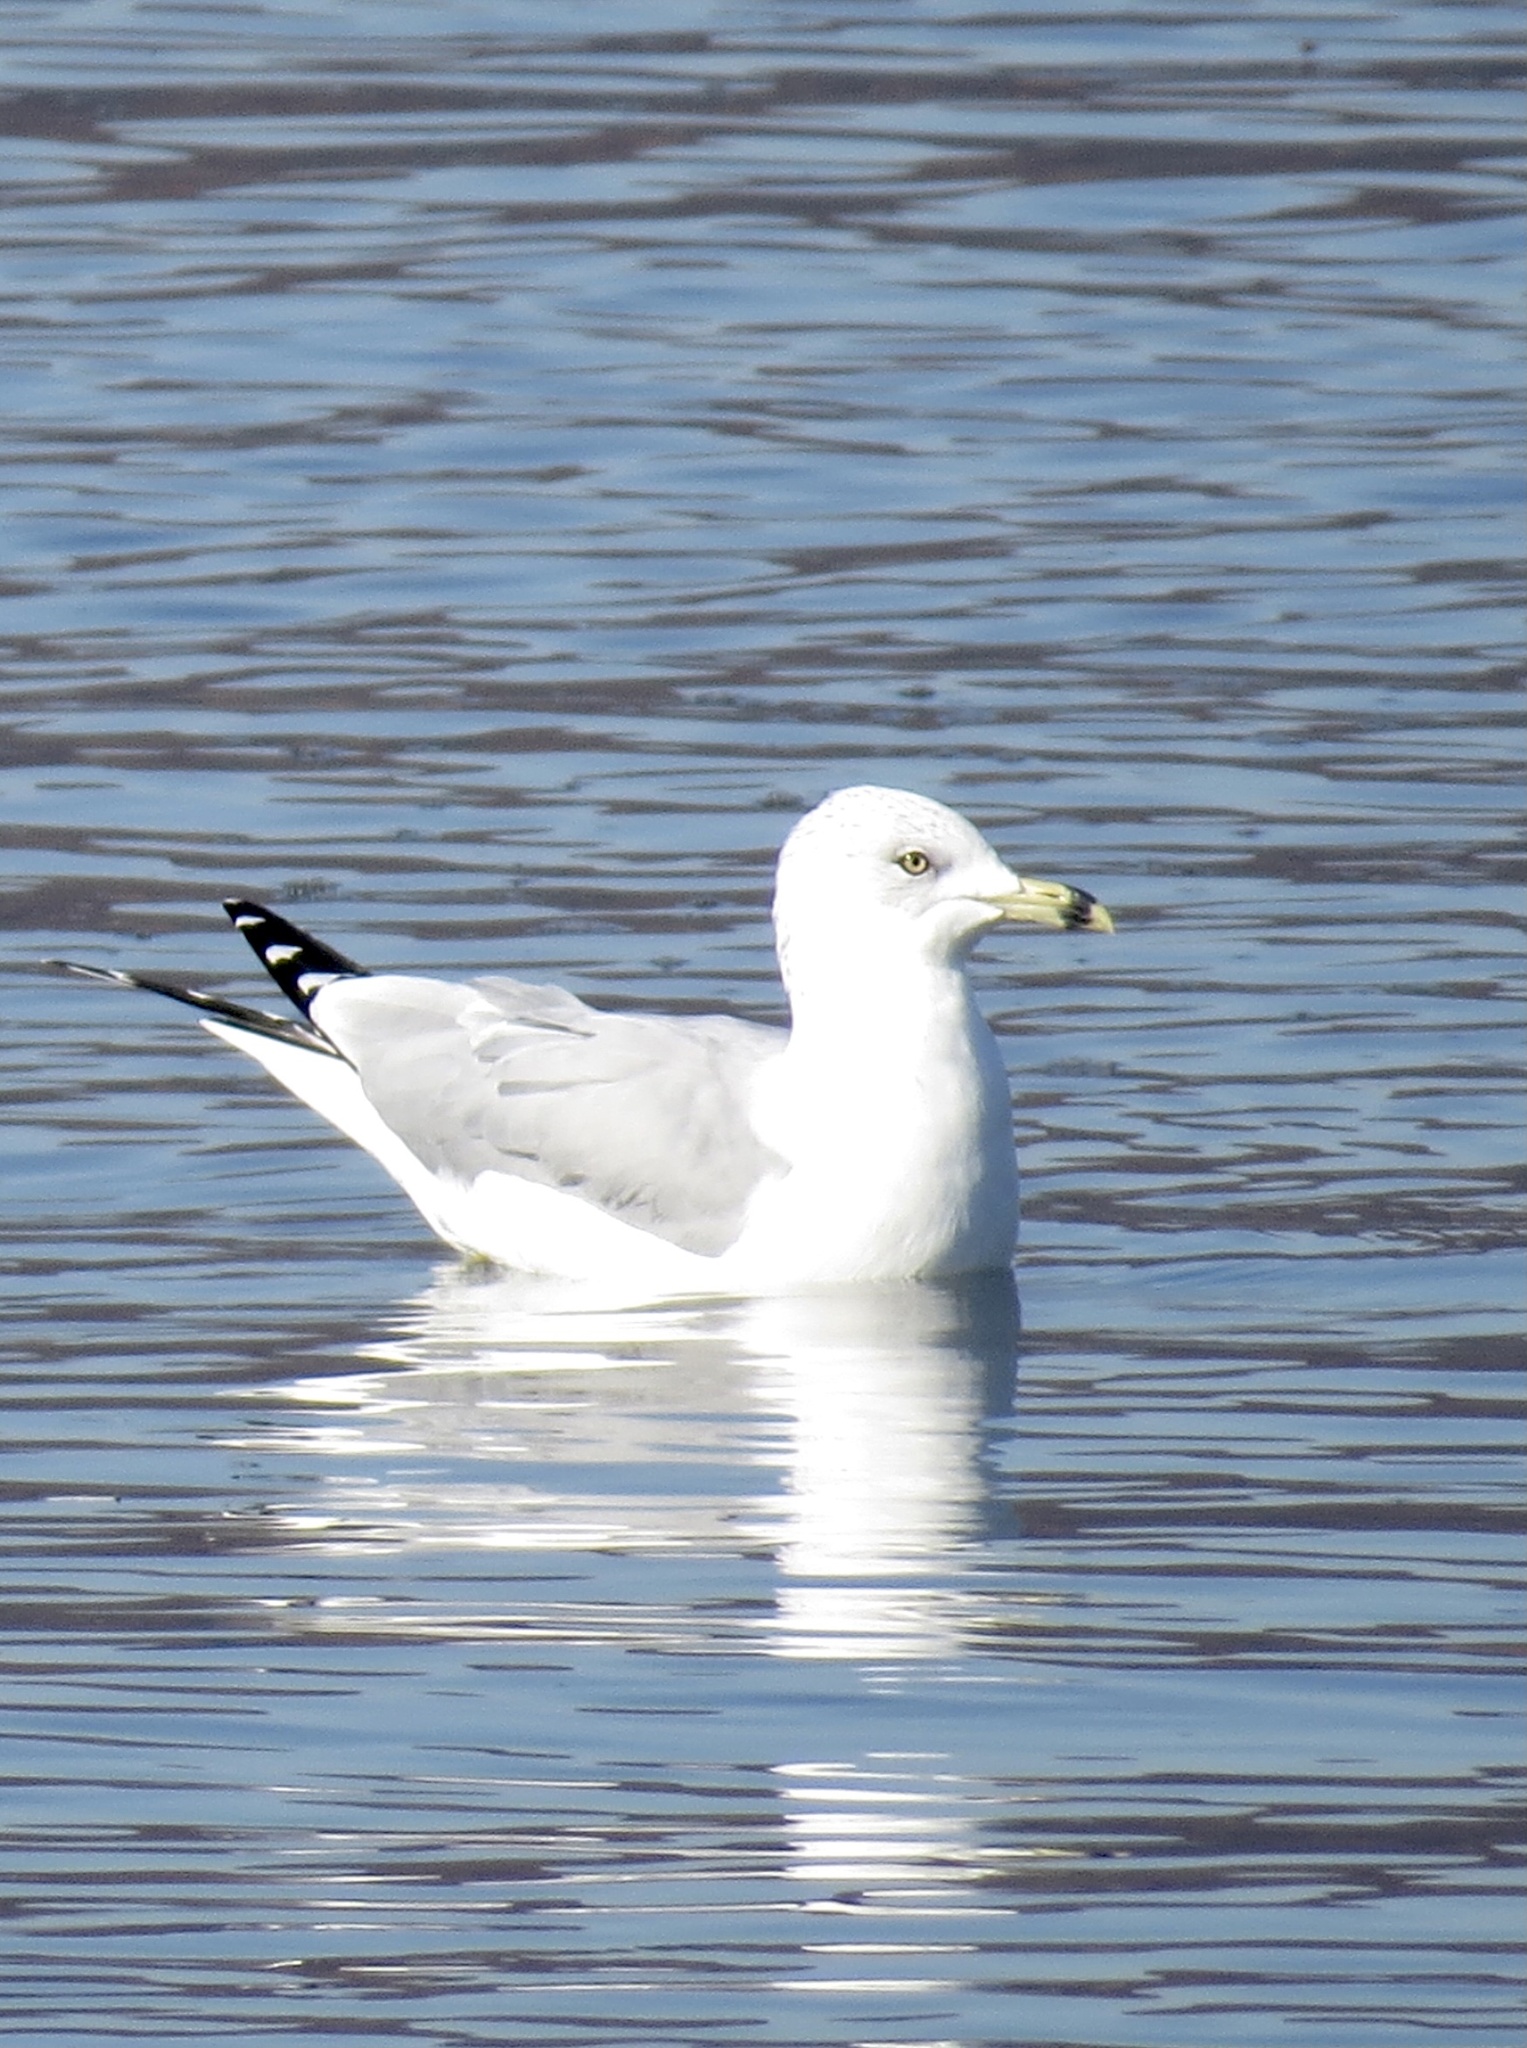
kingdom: Animalia
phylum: Chordata
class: Aves
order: Charadriiformes
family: Laridae
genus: Larus
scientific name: Larus delawarensis
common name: Ring-billed gull
